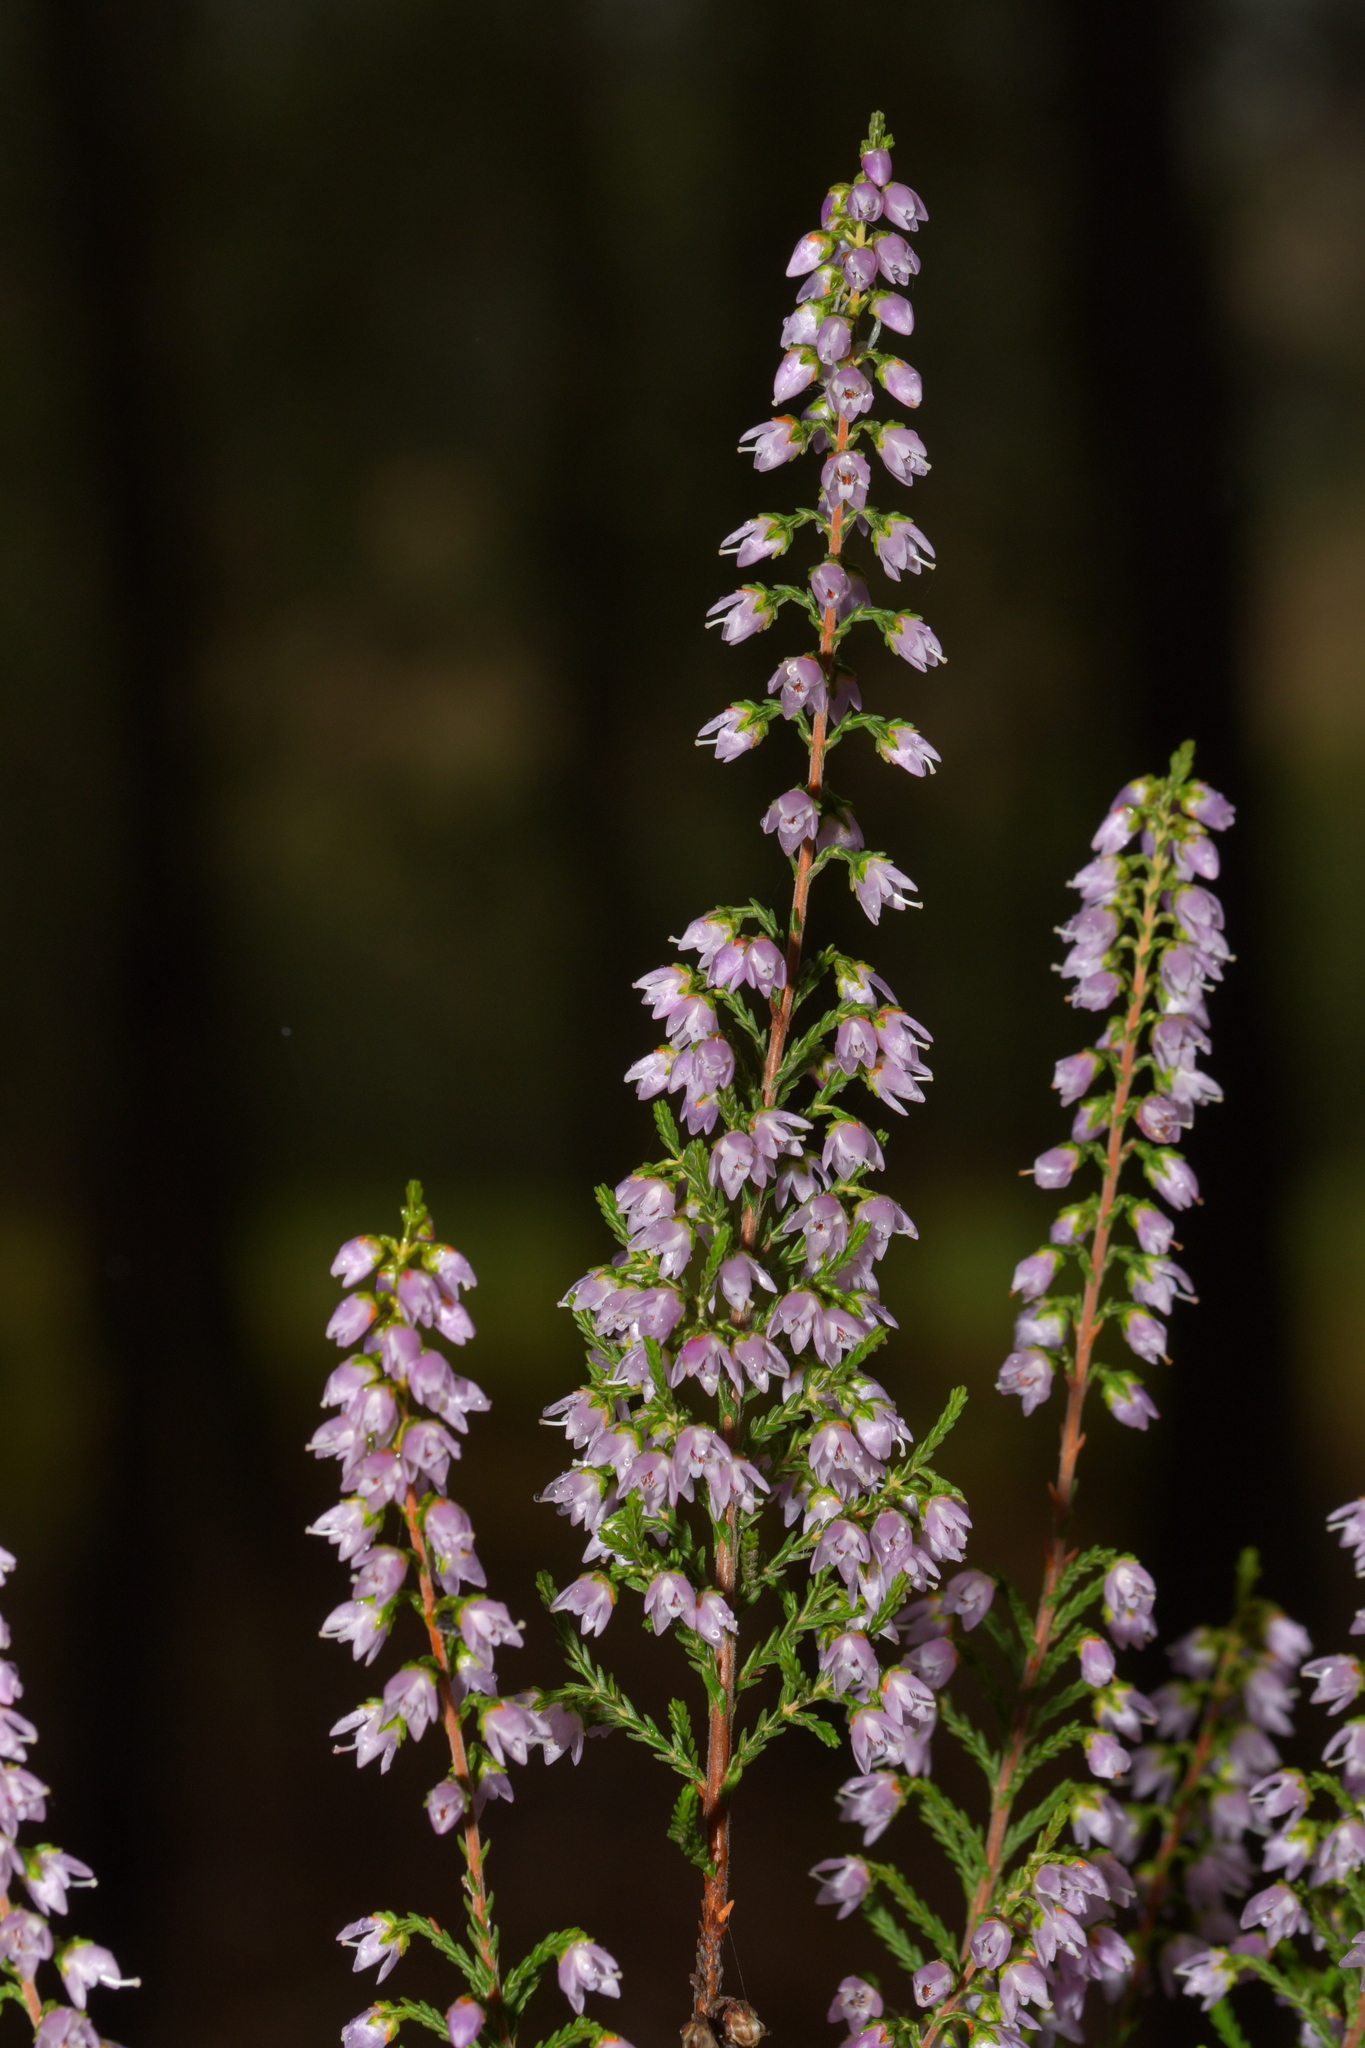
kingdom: Plantae
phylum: Tracheophyta
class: Magnoliopsida
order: Ericales
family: Ericaceae
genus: Calluna
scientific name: Calluna vulgaris
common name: Heather
